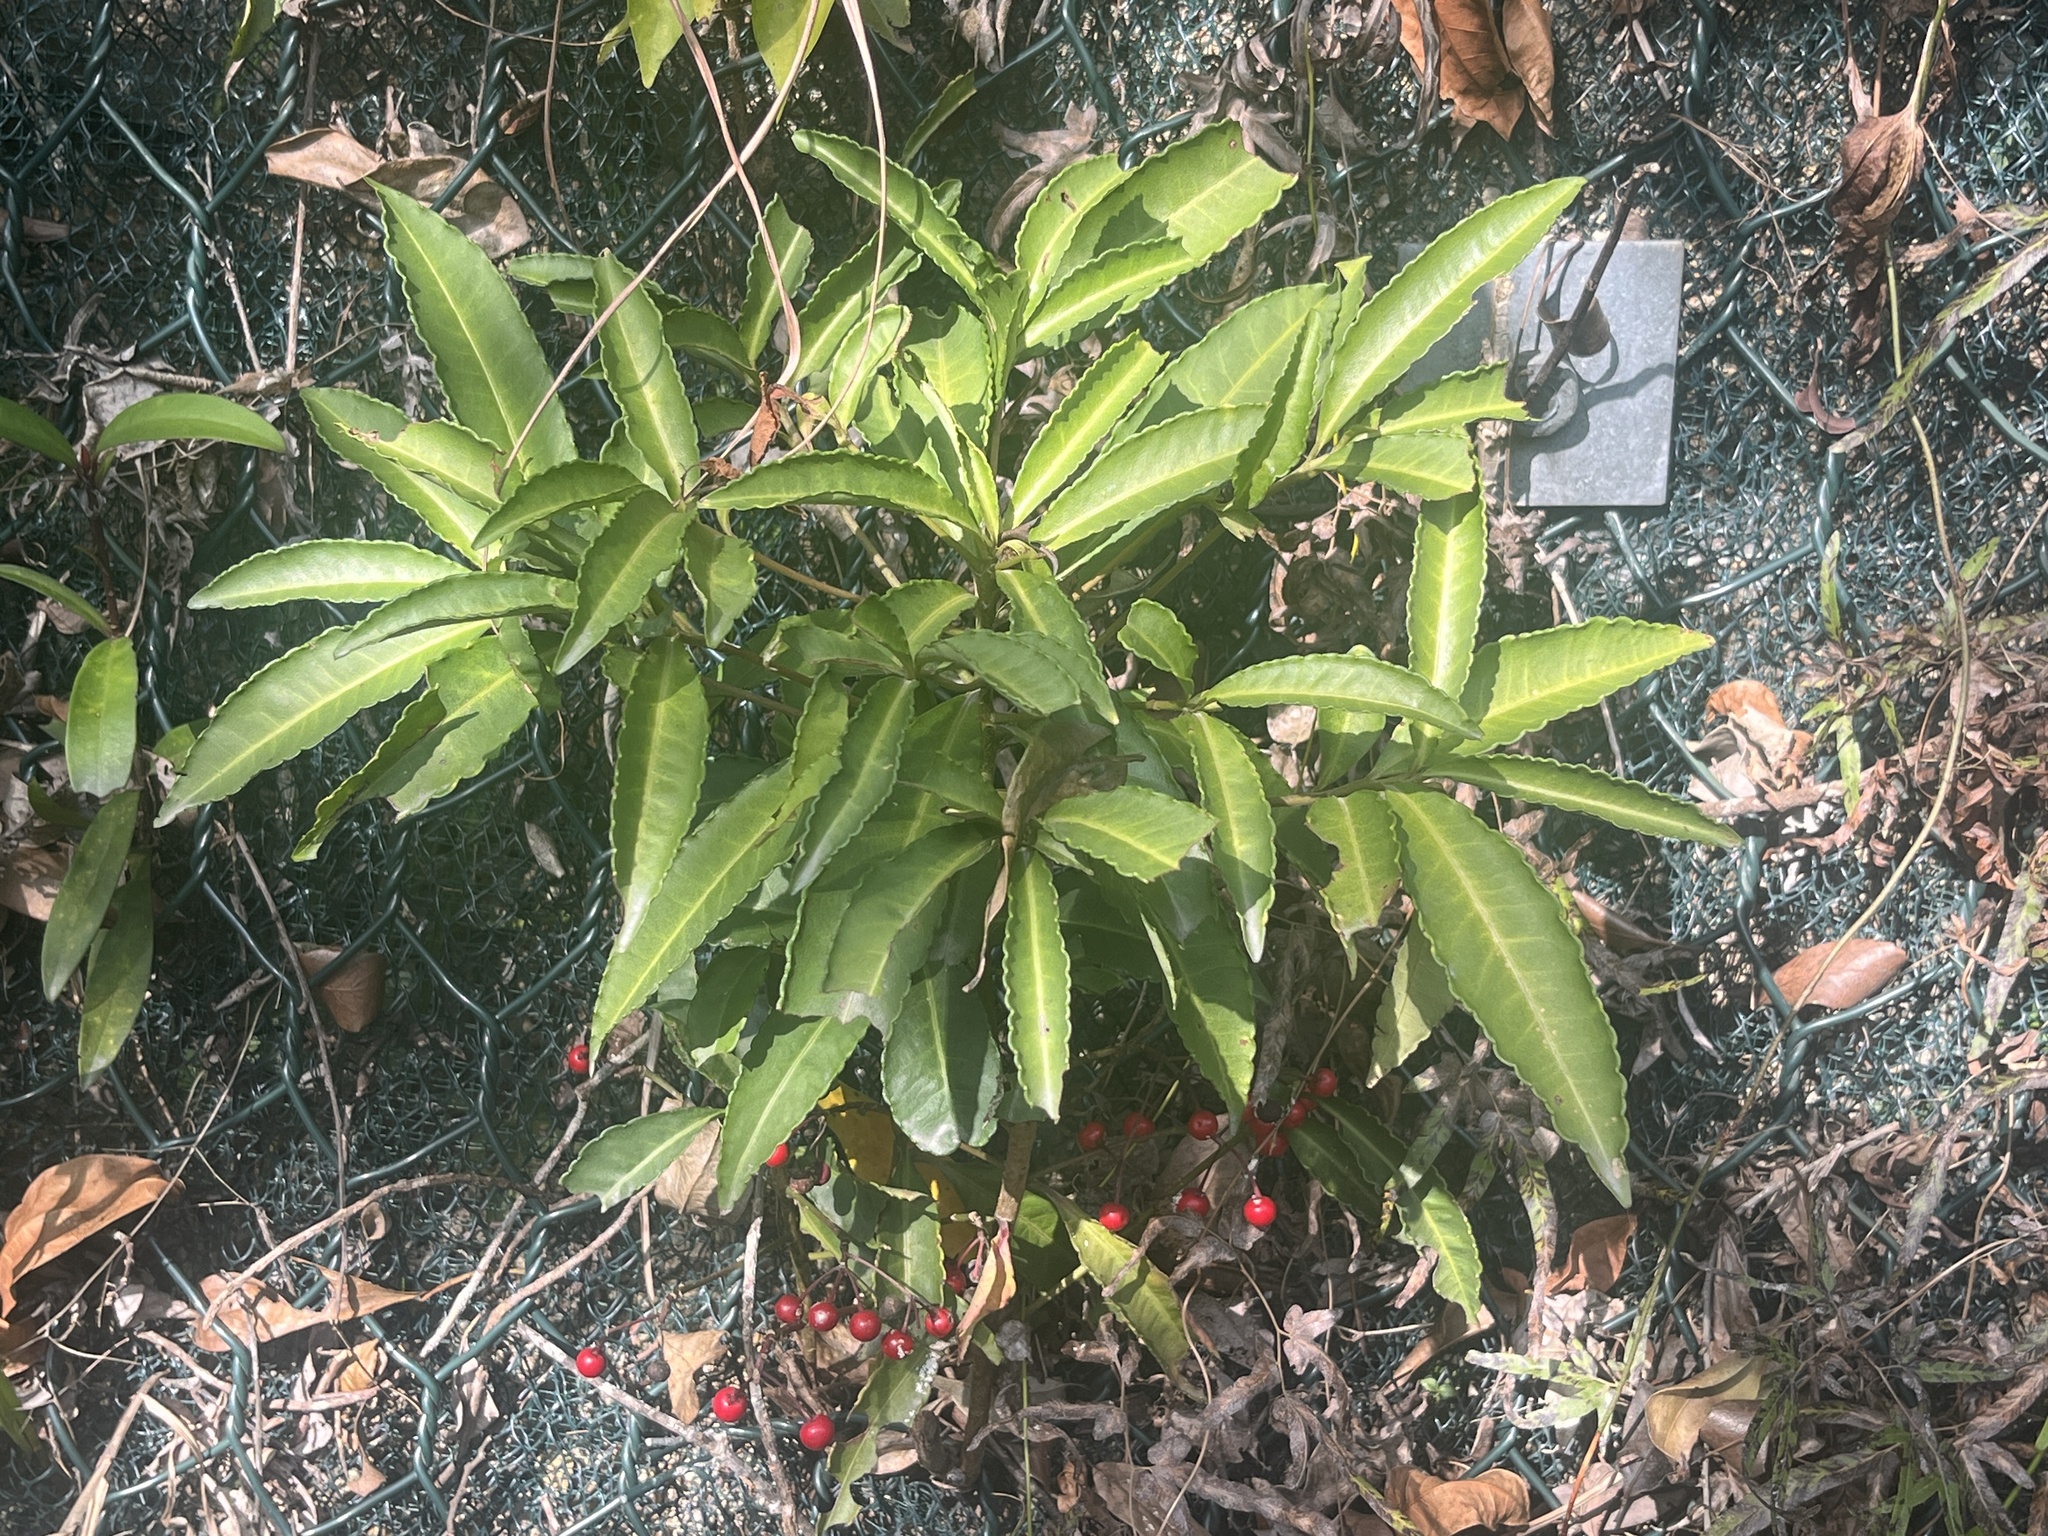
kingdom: Plantae
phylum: Tracheophyta
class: Magnoliopsida
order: Ericales
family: Primulaceae
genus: Ardisia
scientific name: Ardisia crenata
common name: Hen's eyes
